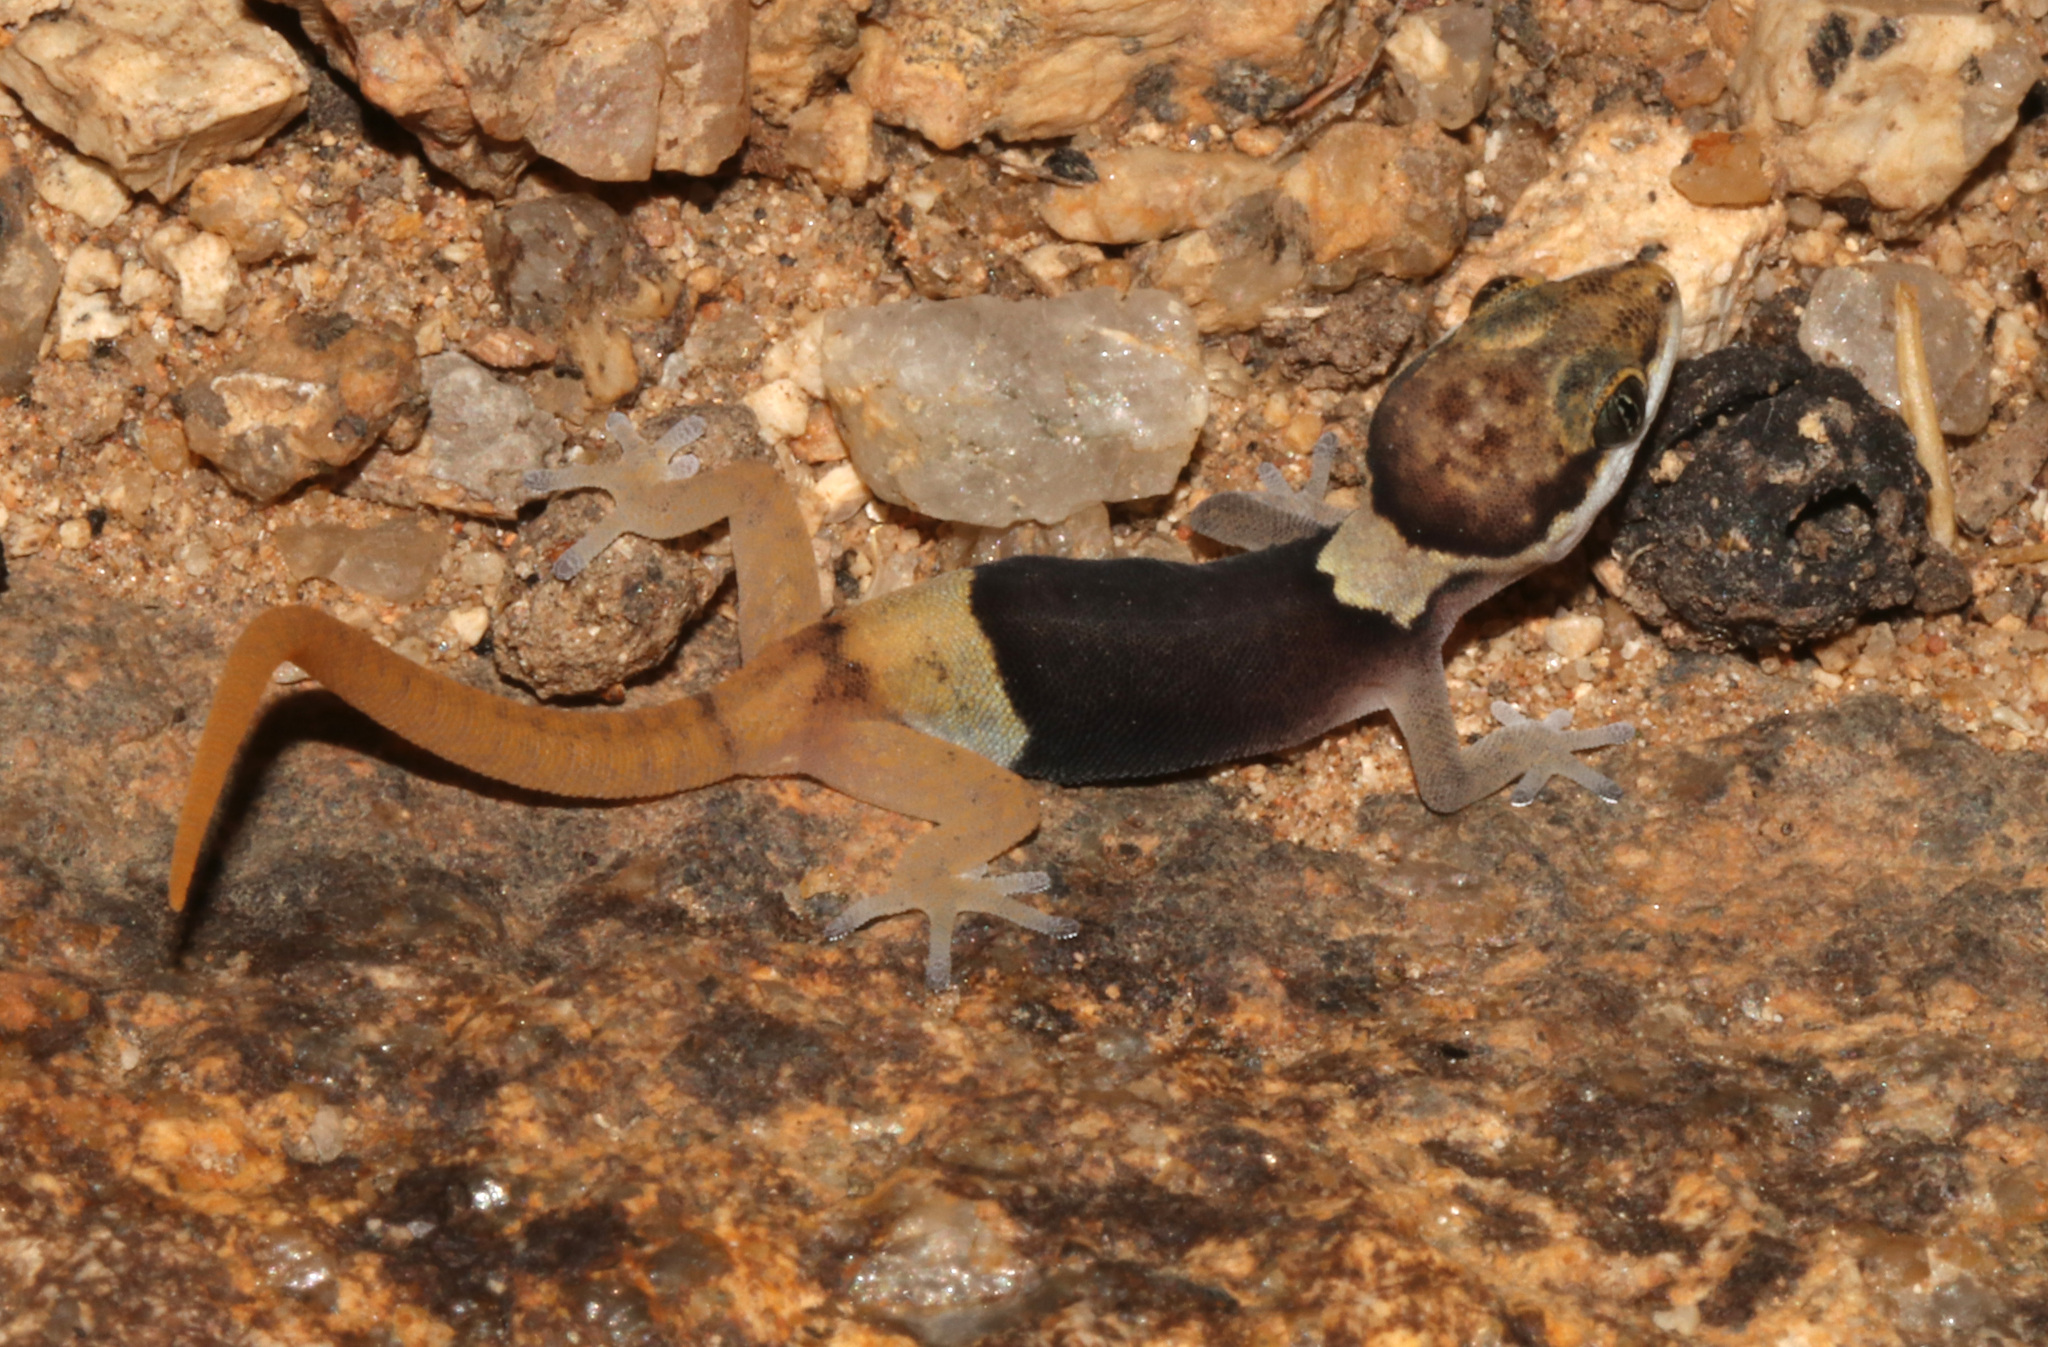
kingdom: Animalia
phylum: Chordata
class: Squamata
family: Gekkonidae
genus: Pachydactylus
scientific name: Pachydactylus bicolor
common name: Two-colored thick-toed gecko
